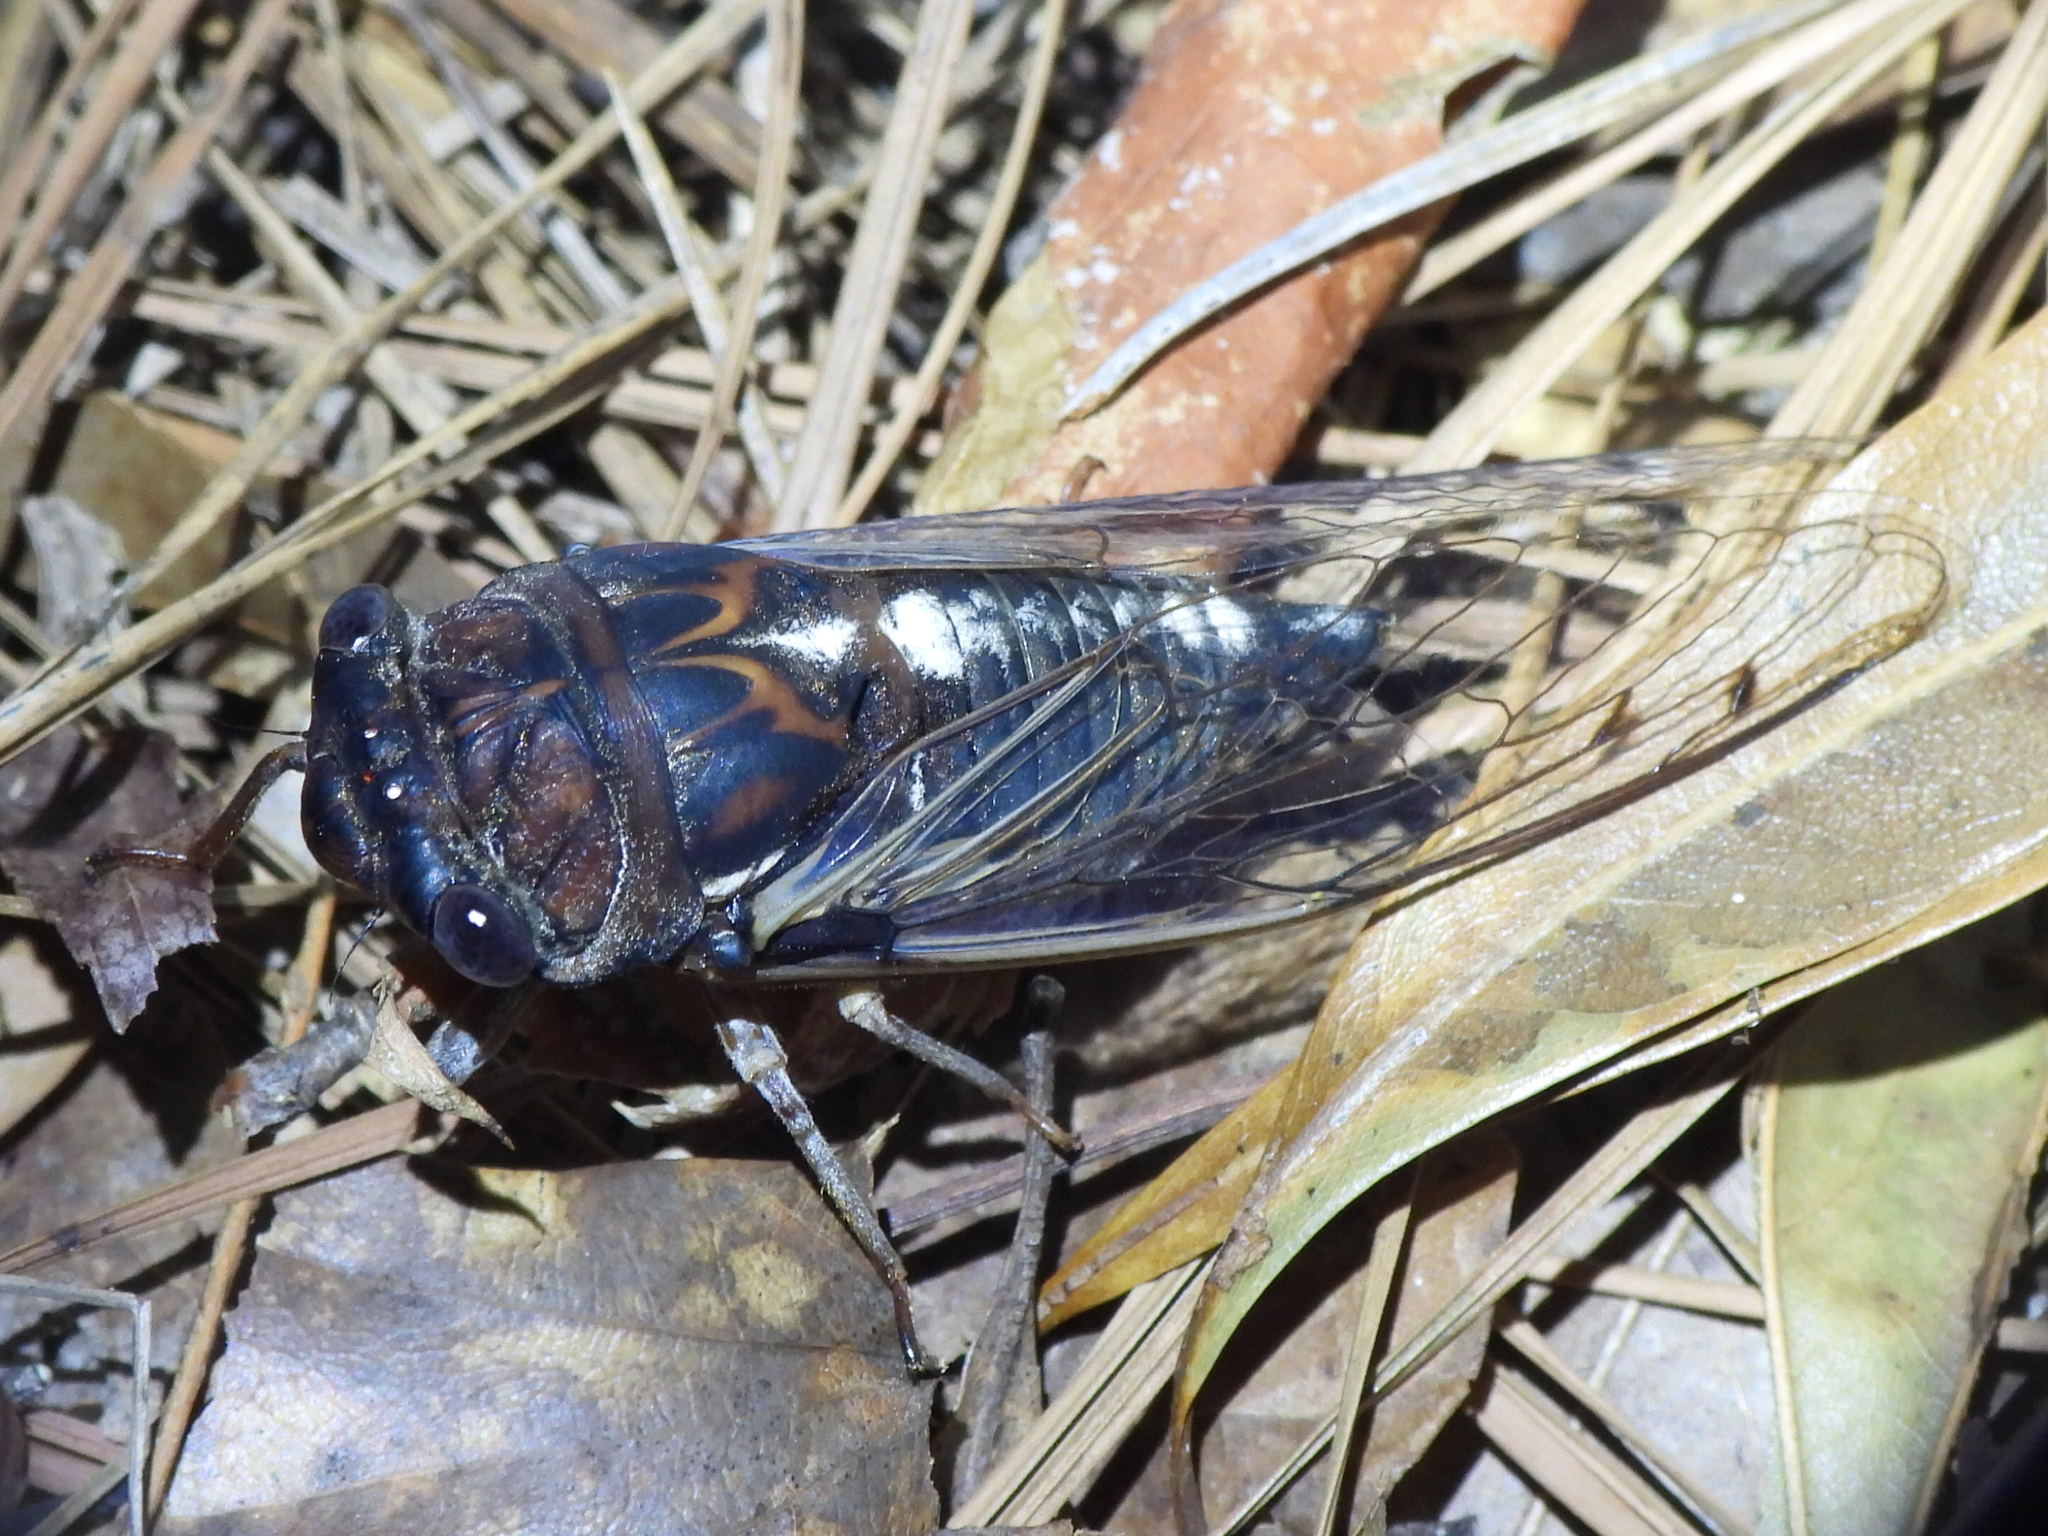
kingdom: Animalia
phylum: Arthropoda
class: Insecta
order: Hemiptera
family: Cicadidae
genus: Megatibicen
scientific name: Megatibicen figuratus
